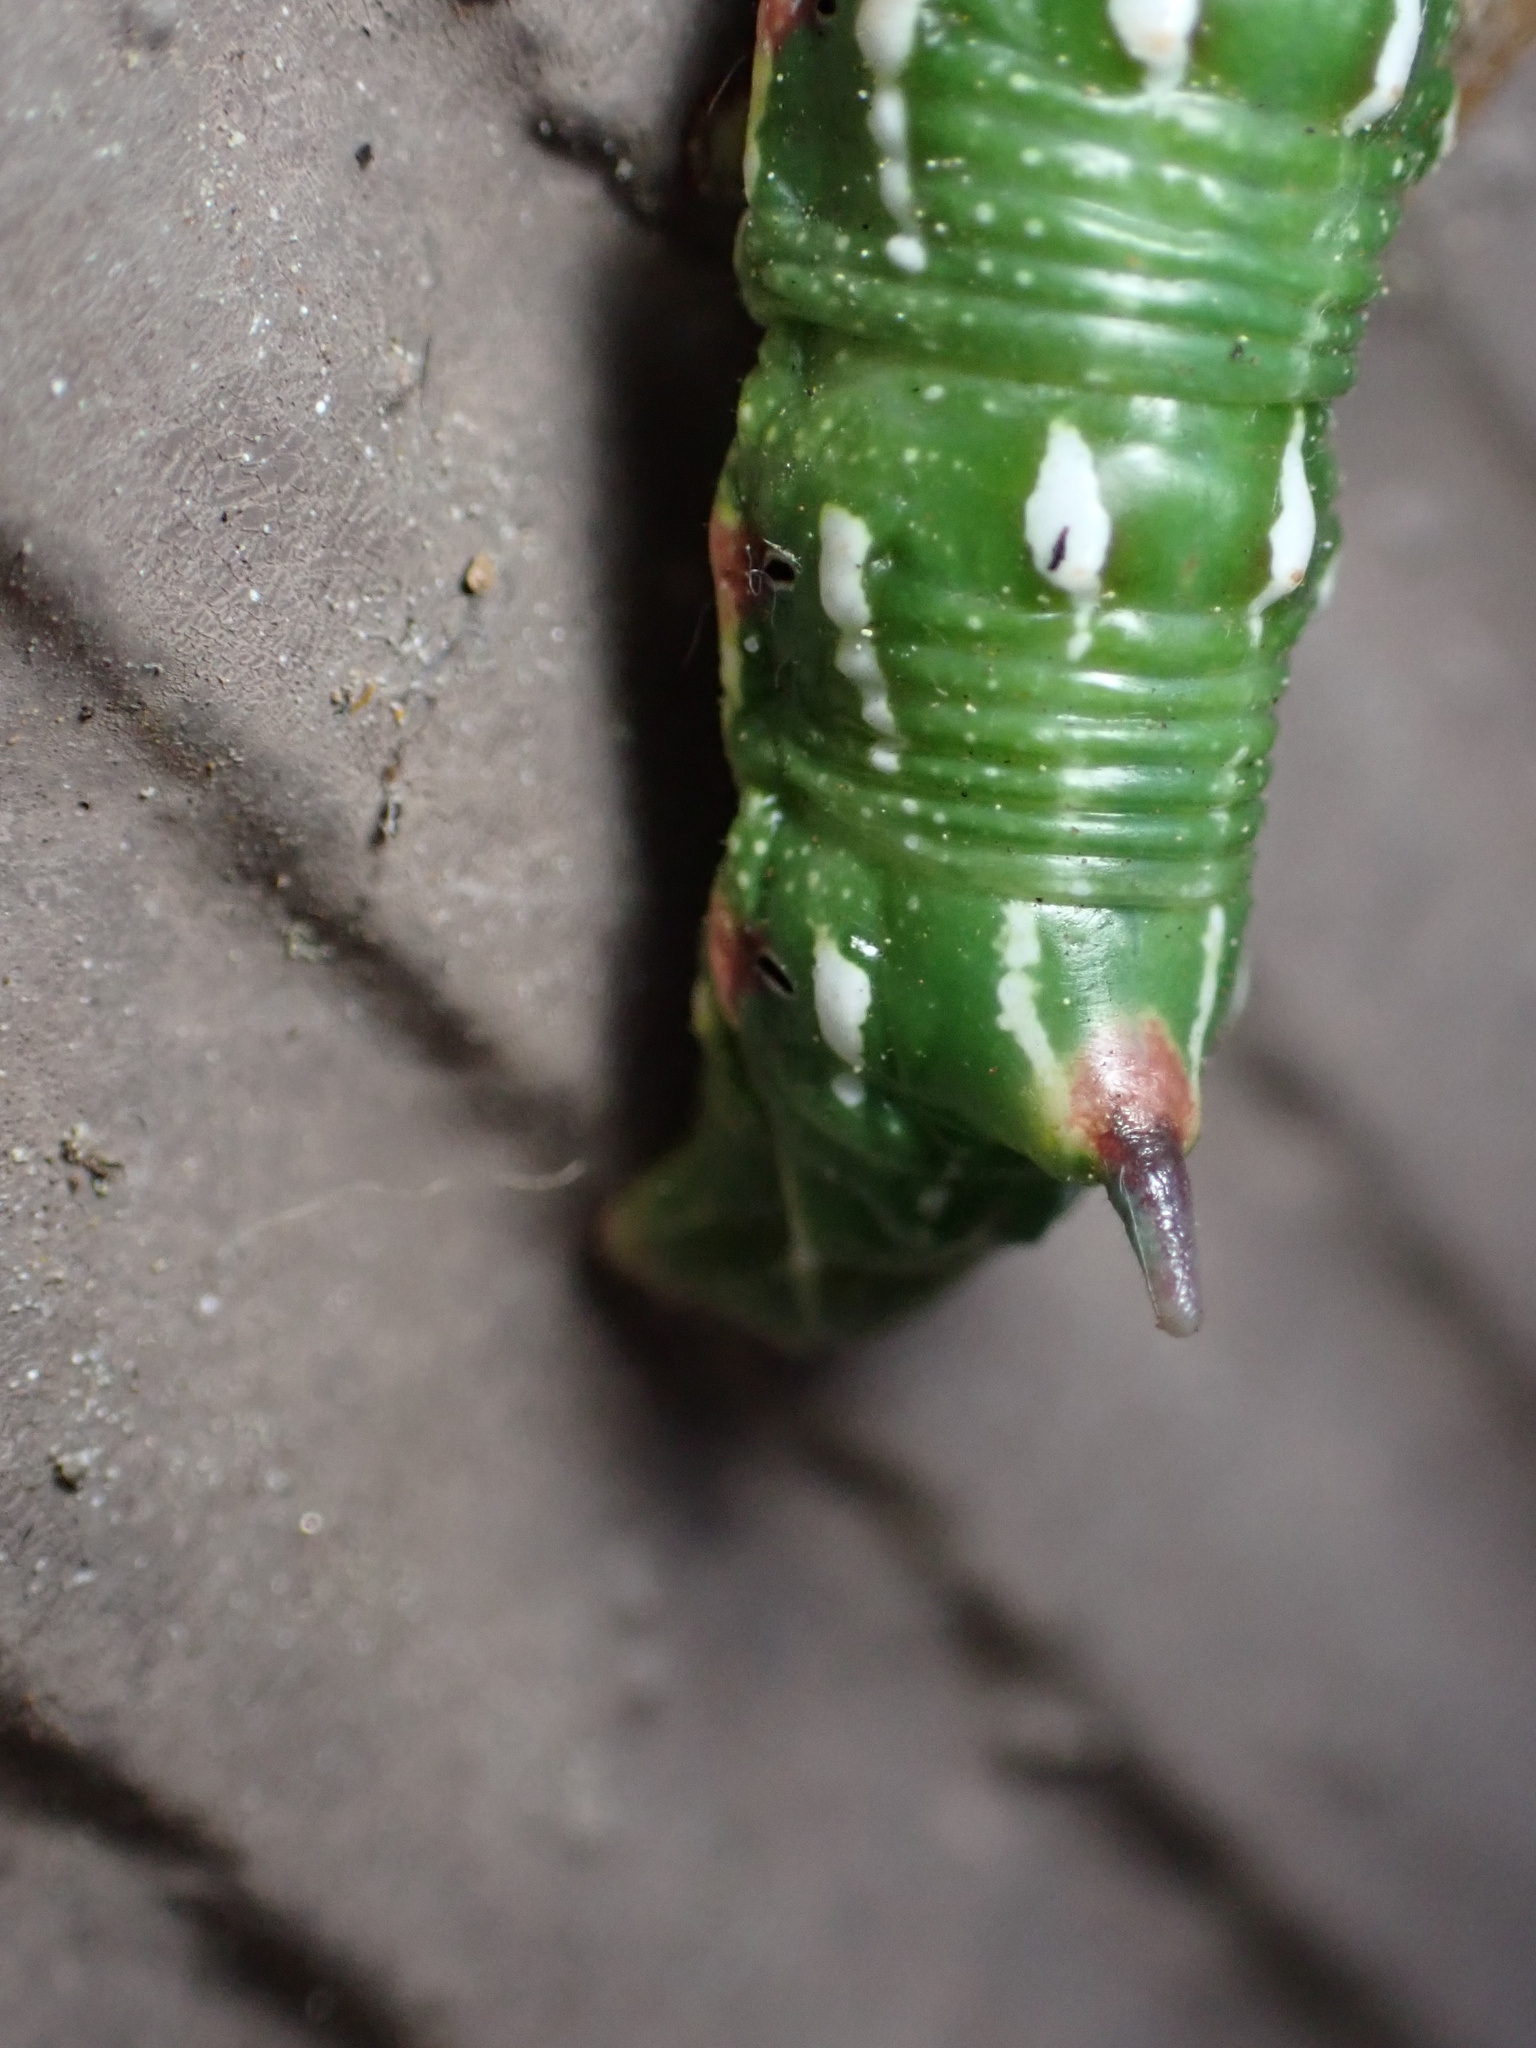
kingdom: Animalia
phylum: Arthropoda
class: Insecta
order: Lepidoptera
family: Sphingidae
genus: Sphinx
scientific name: Sphinx sequoiae
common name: Sequoia sphinx
